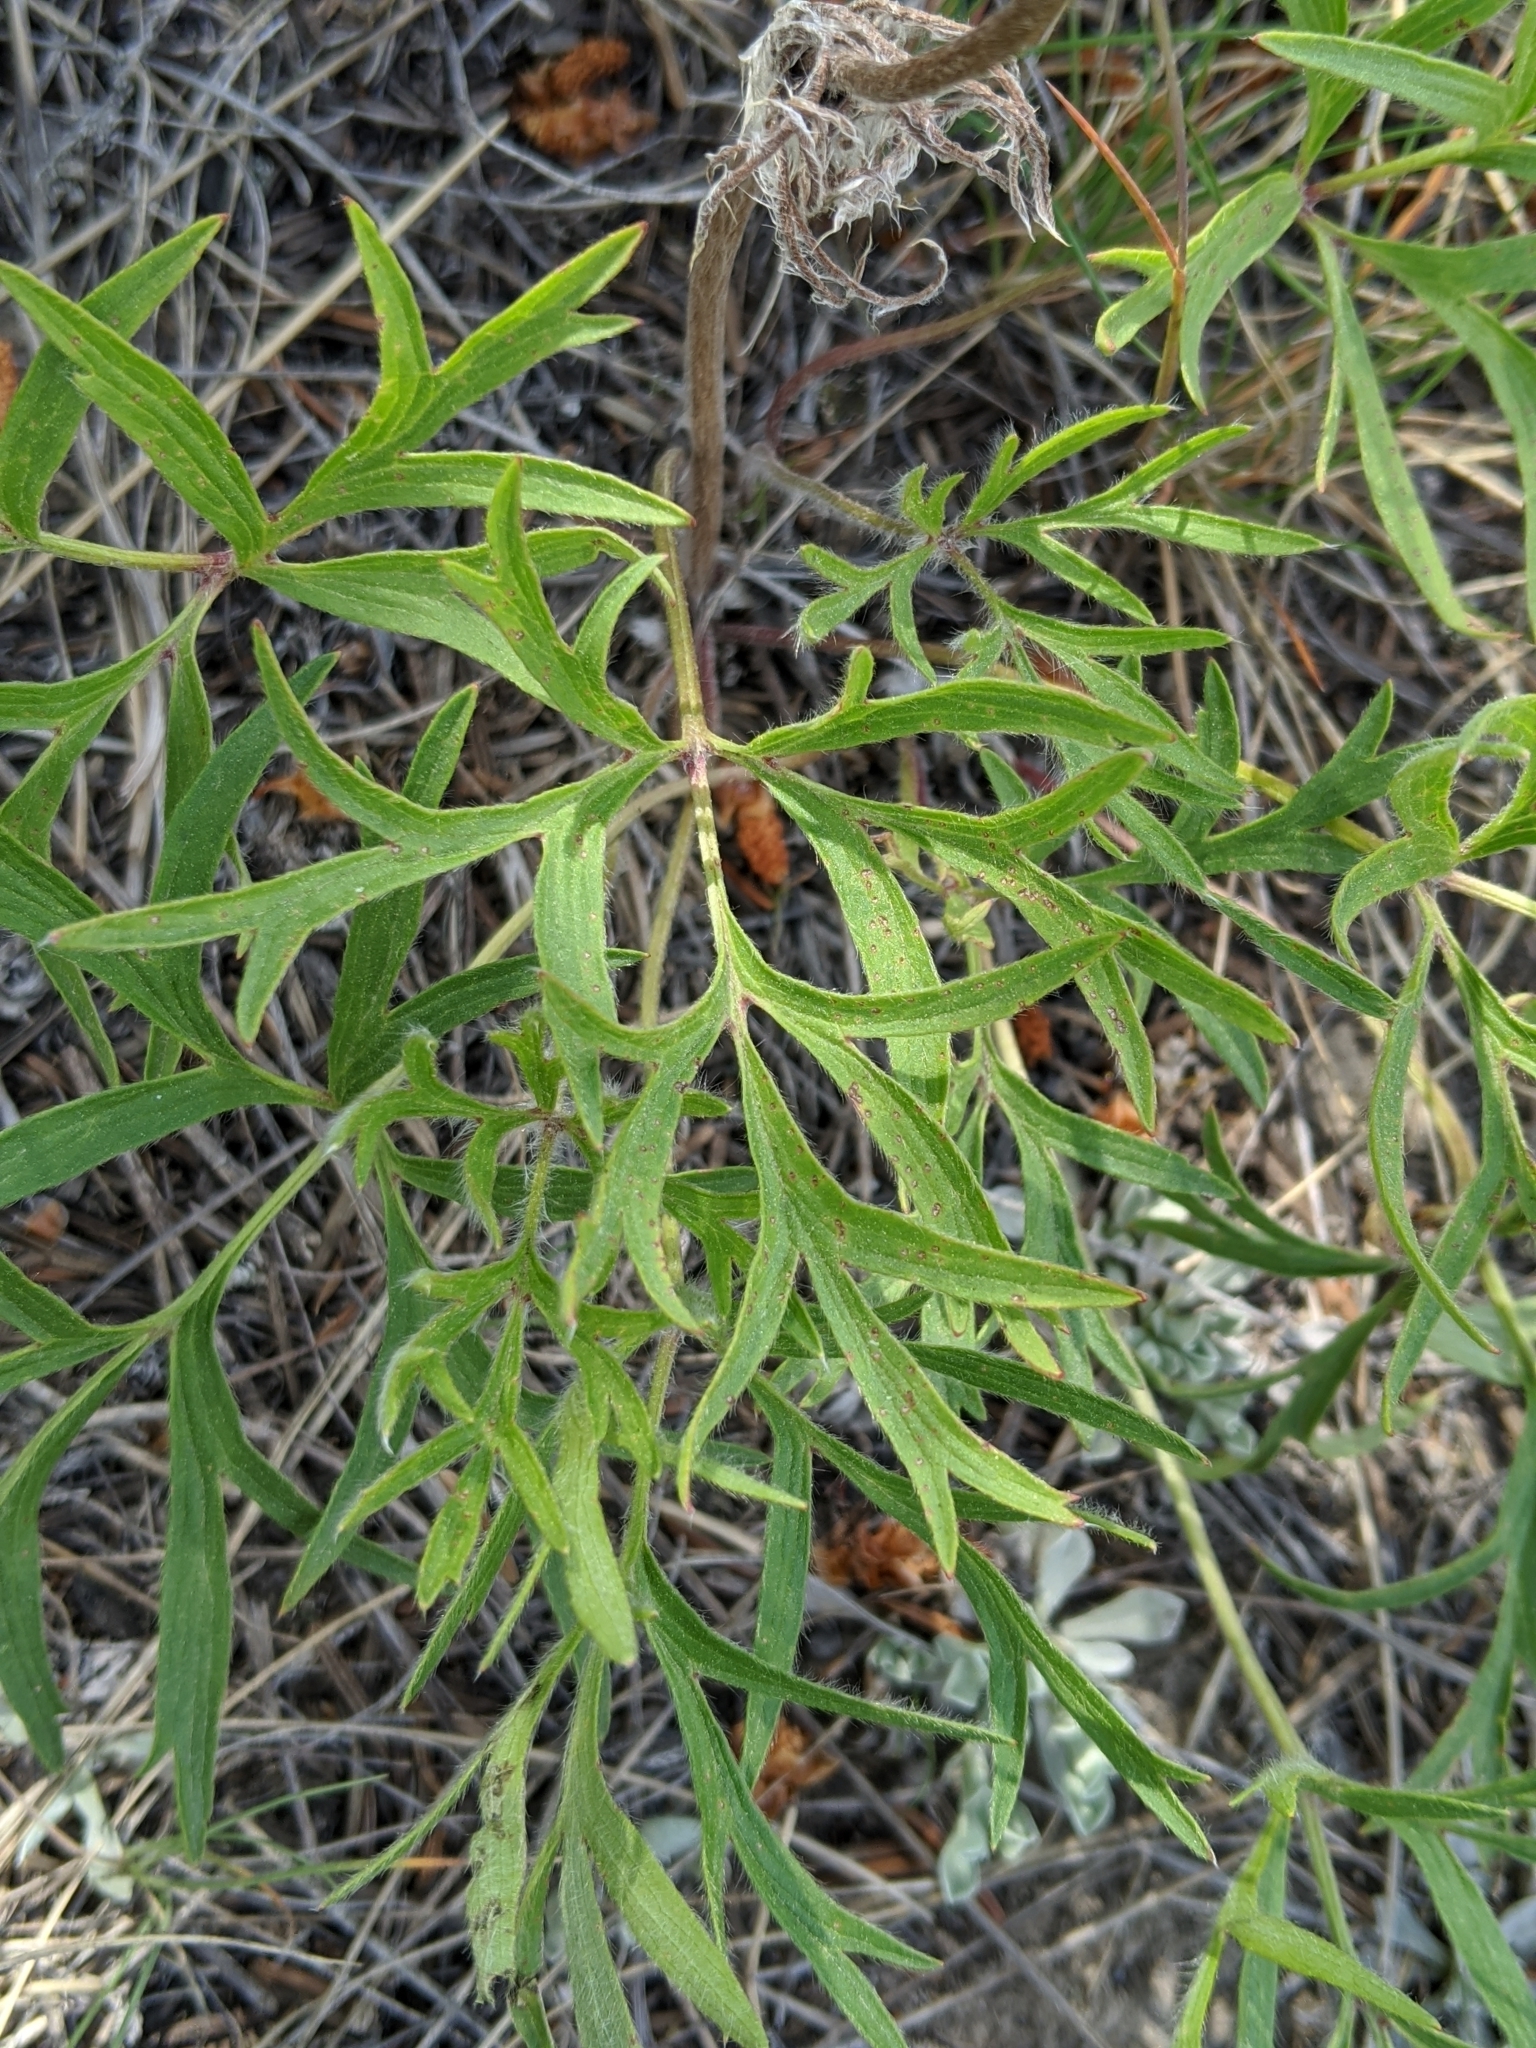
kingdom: Plantae
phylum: Tracheophyta
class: Magnoliopsida
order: Ranunculales
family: Ranunculaceae
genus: Pulsatilla
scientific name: Pulsatilla nuttalliana
